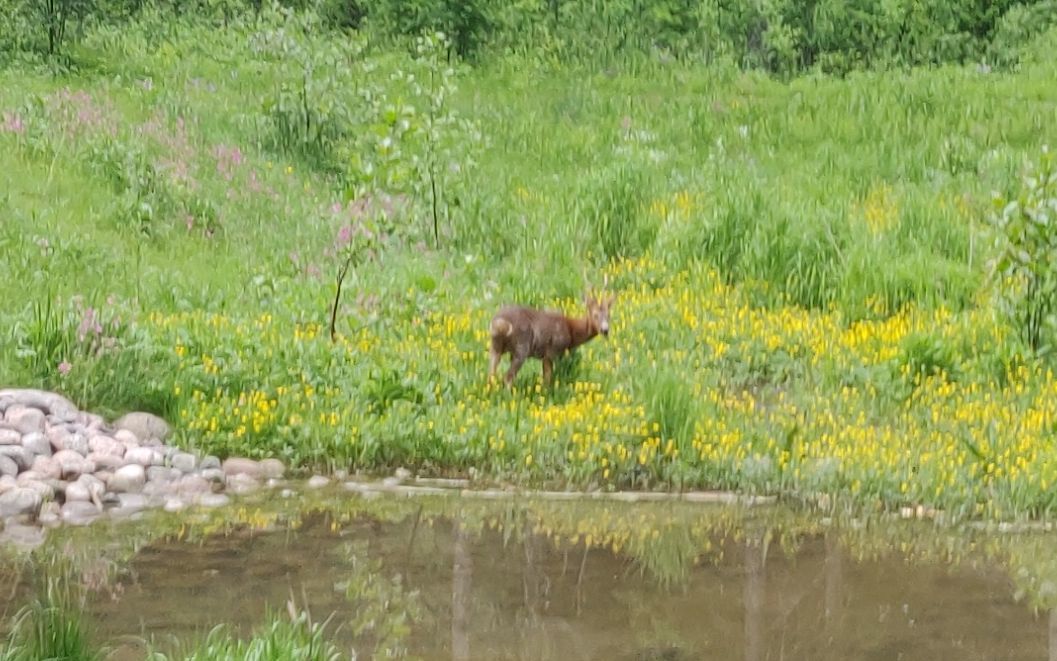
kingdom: Animalia
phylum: Chordata
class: Mammalia
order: Artiodactyla
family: Cervidae
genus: Capreolus
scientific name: Capreolus capreolus
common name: Western roe deer
